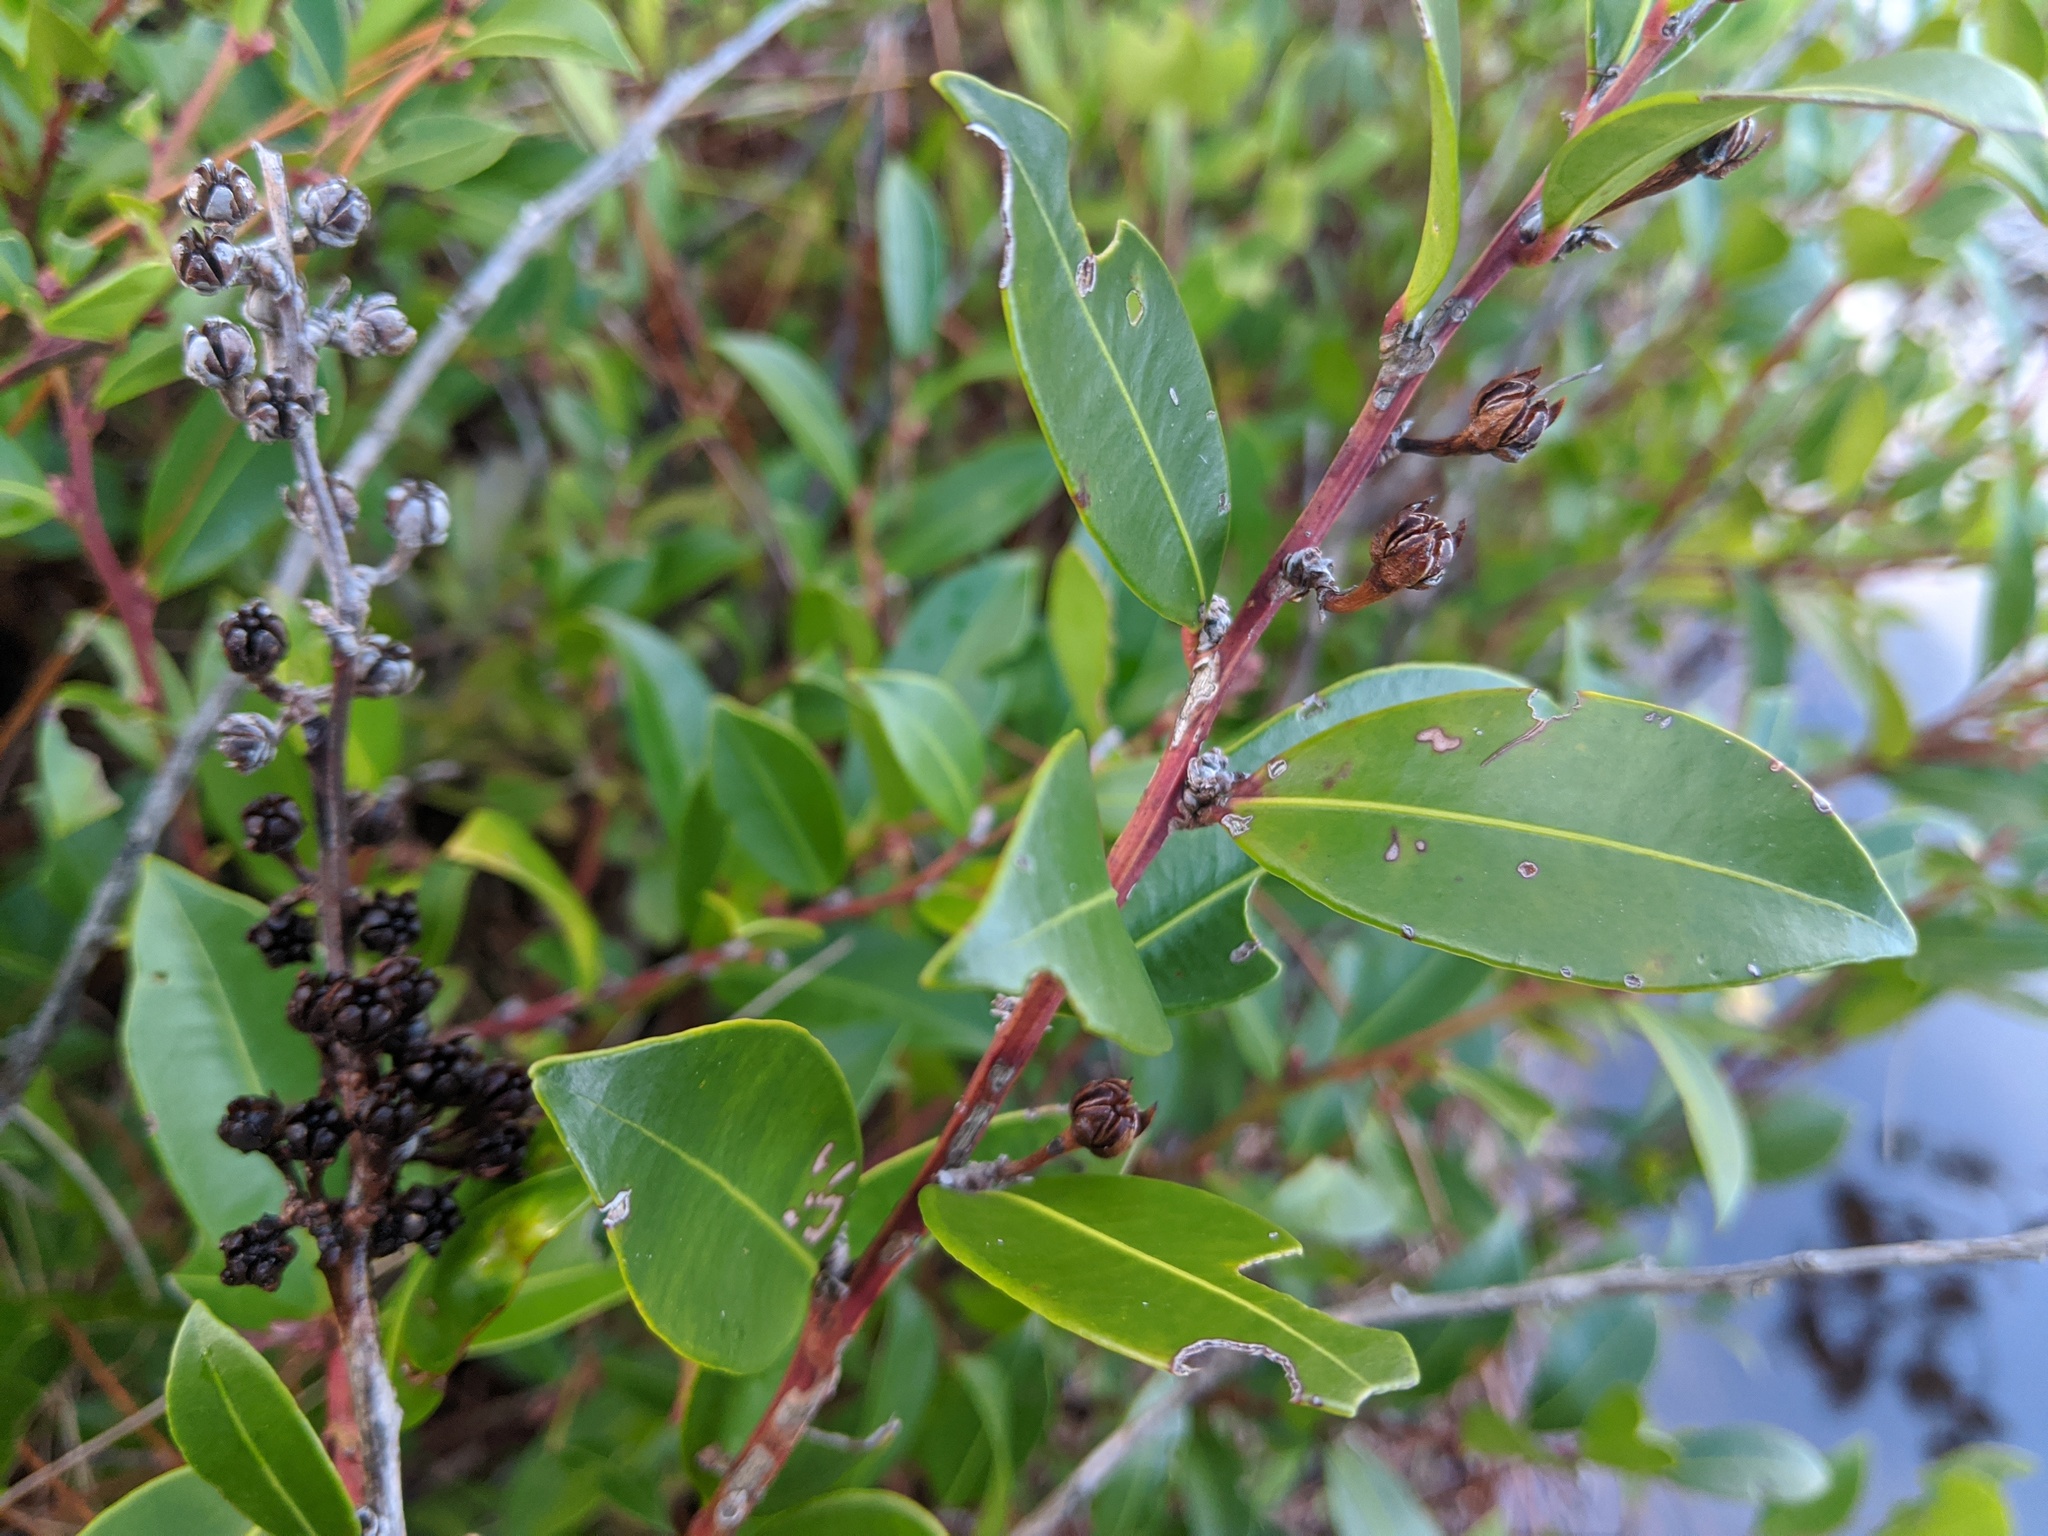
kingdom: Plantae
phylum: Tracheophyta
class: Magnoliopsida
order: Ericales
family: Ericaceae
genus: Lyonia
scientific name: Lyonia lucida
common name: Fetterbush
